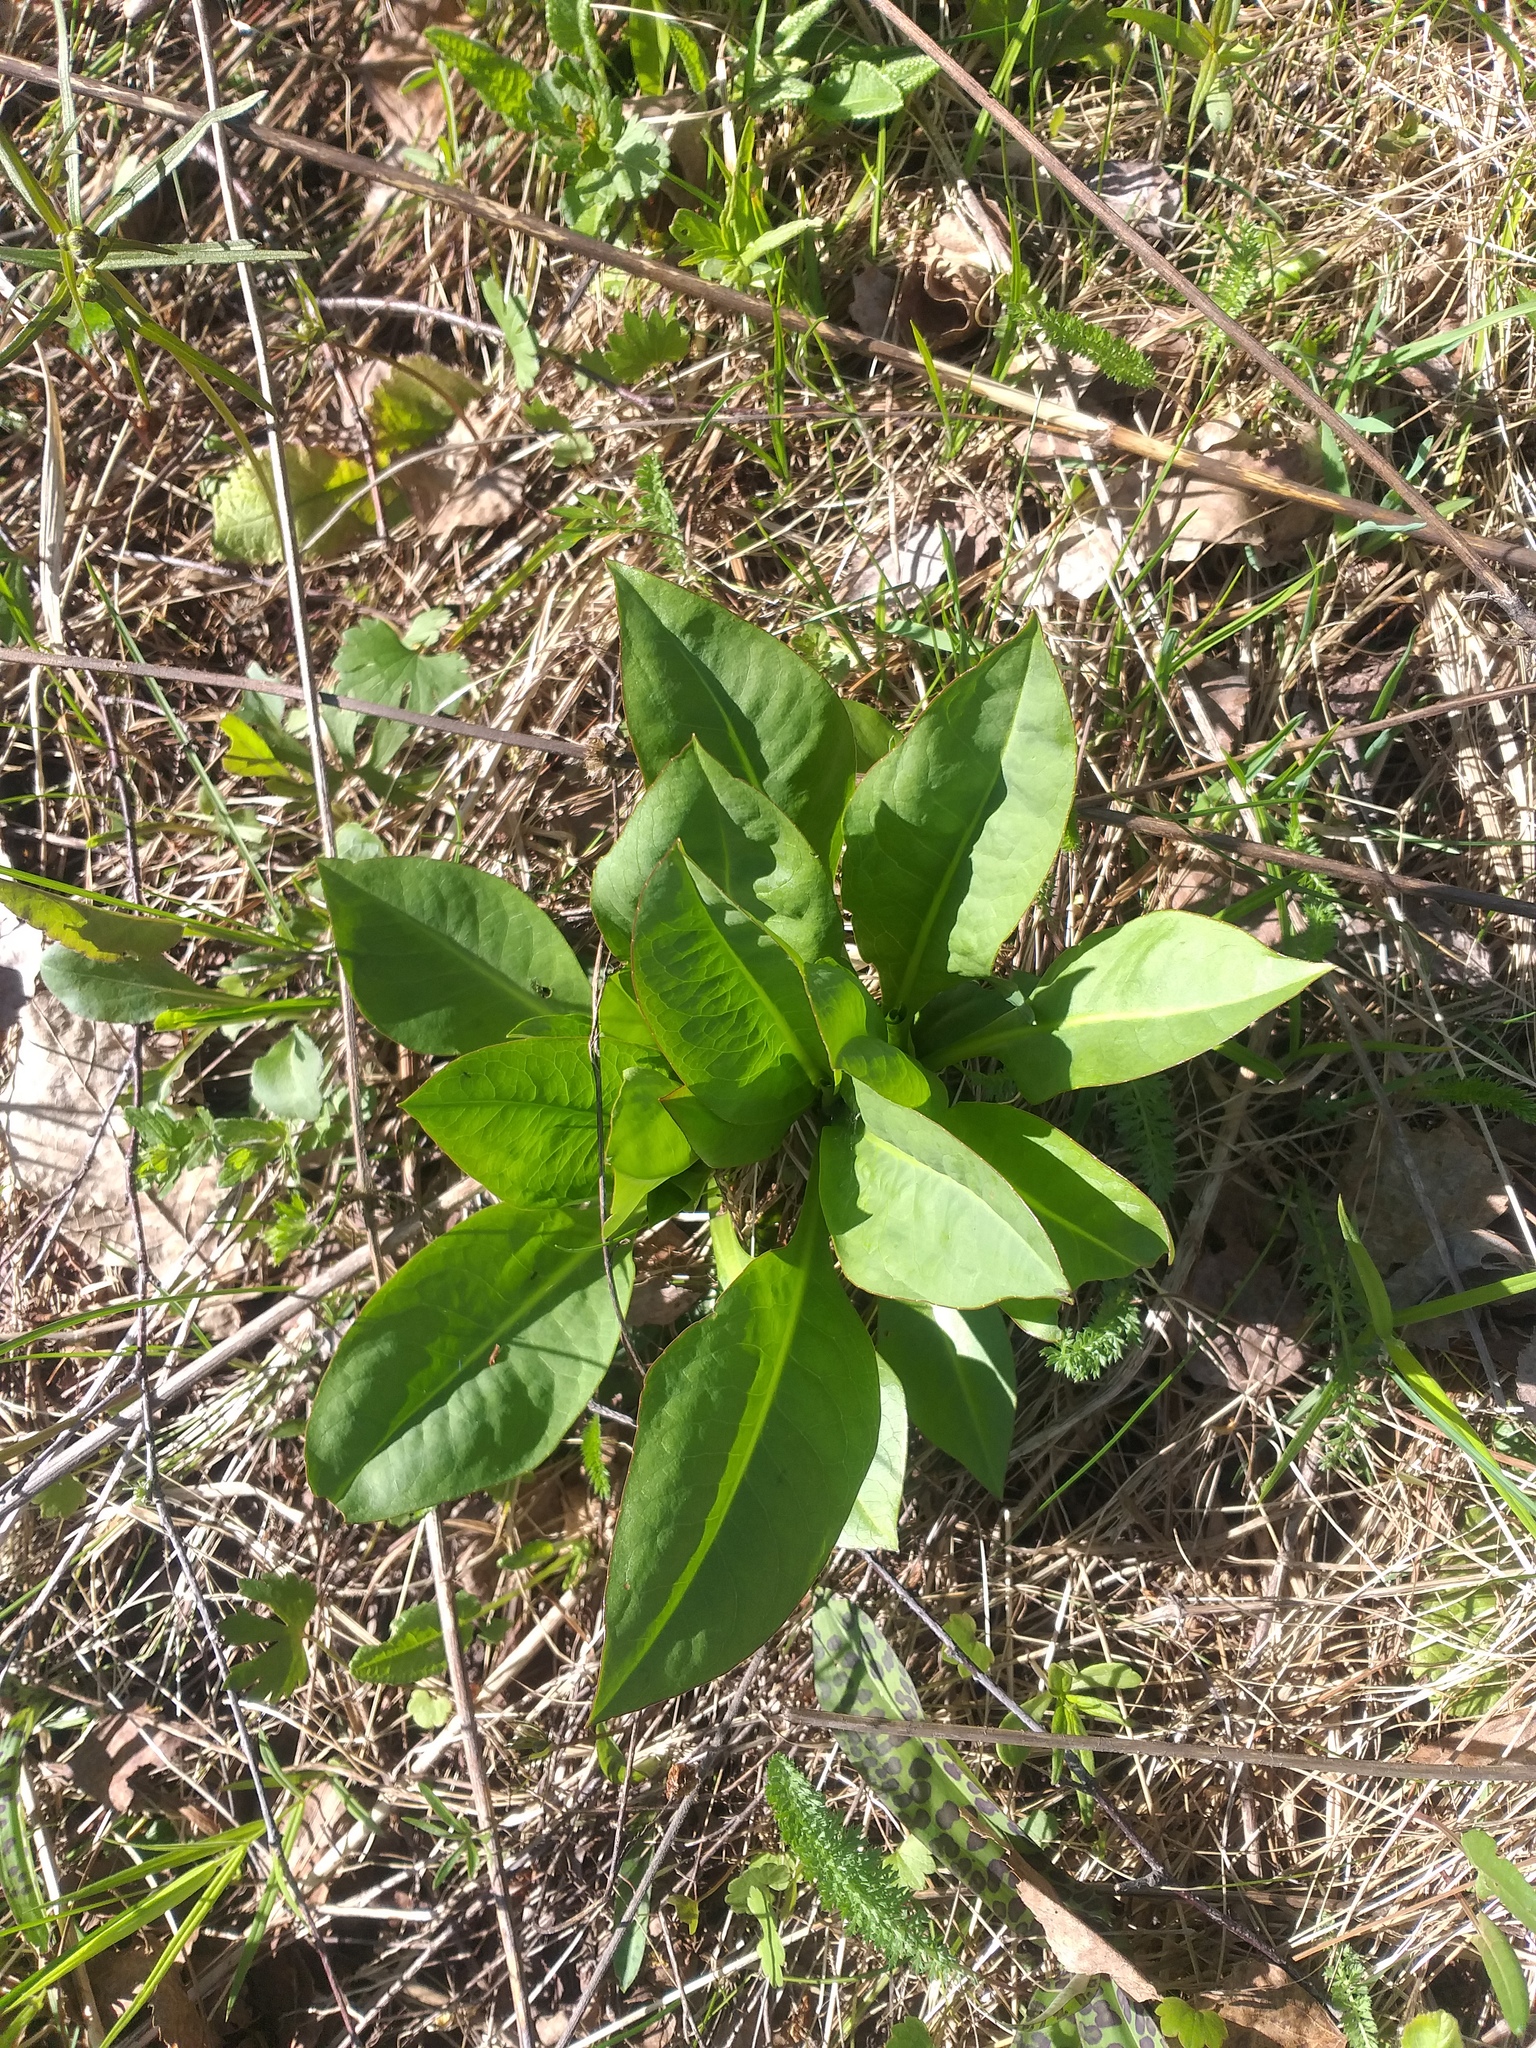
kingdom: Plantae
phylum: Tracheophyta
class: Magnoliopsida
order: Dipsacales
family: Caprifoliaceae
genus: Succisa
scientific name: Succisa pratensis
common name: Devil's-bit
